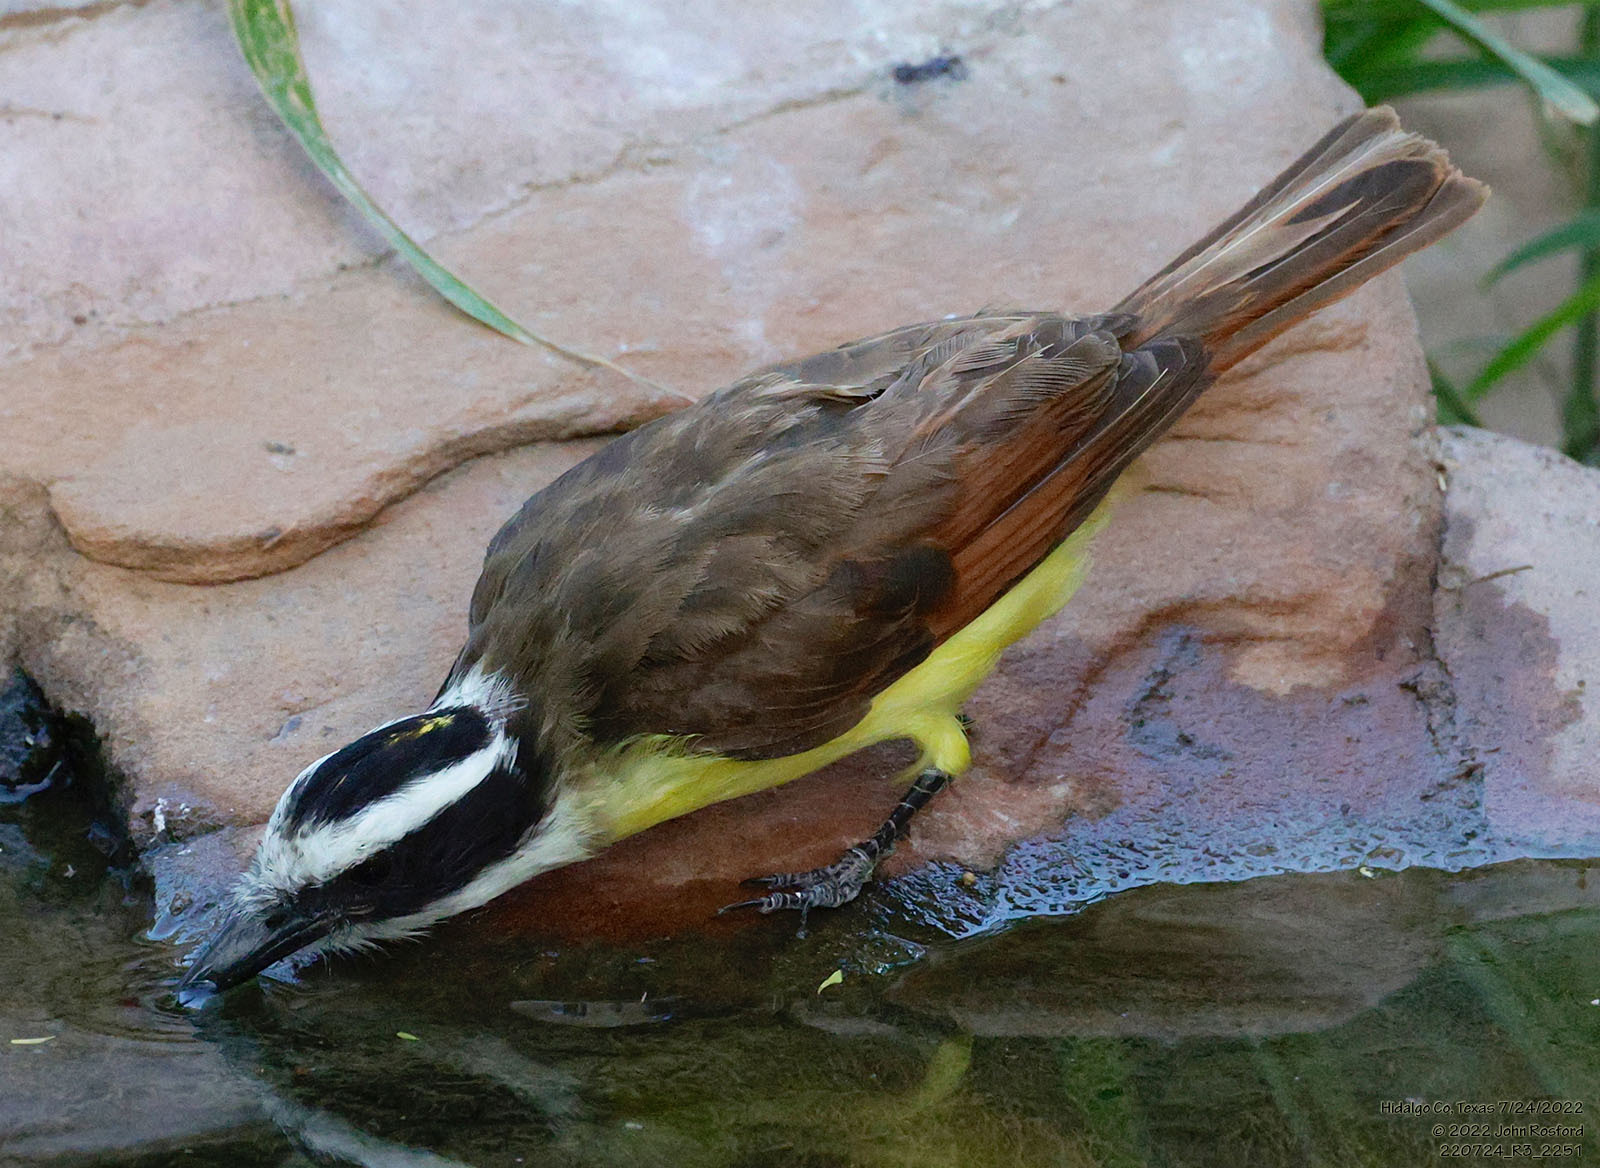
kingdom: Animalia
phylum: Chordata
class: Aves
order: Passeriformes
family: Tyrannidae
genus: Pitangus
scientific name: Pitangus sulphuratus
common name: Great kiskadee
